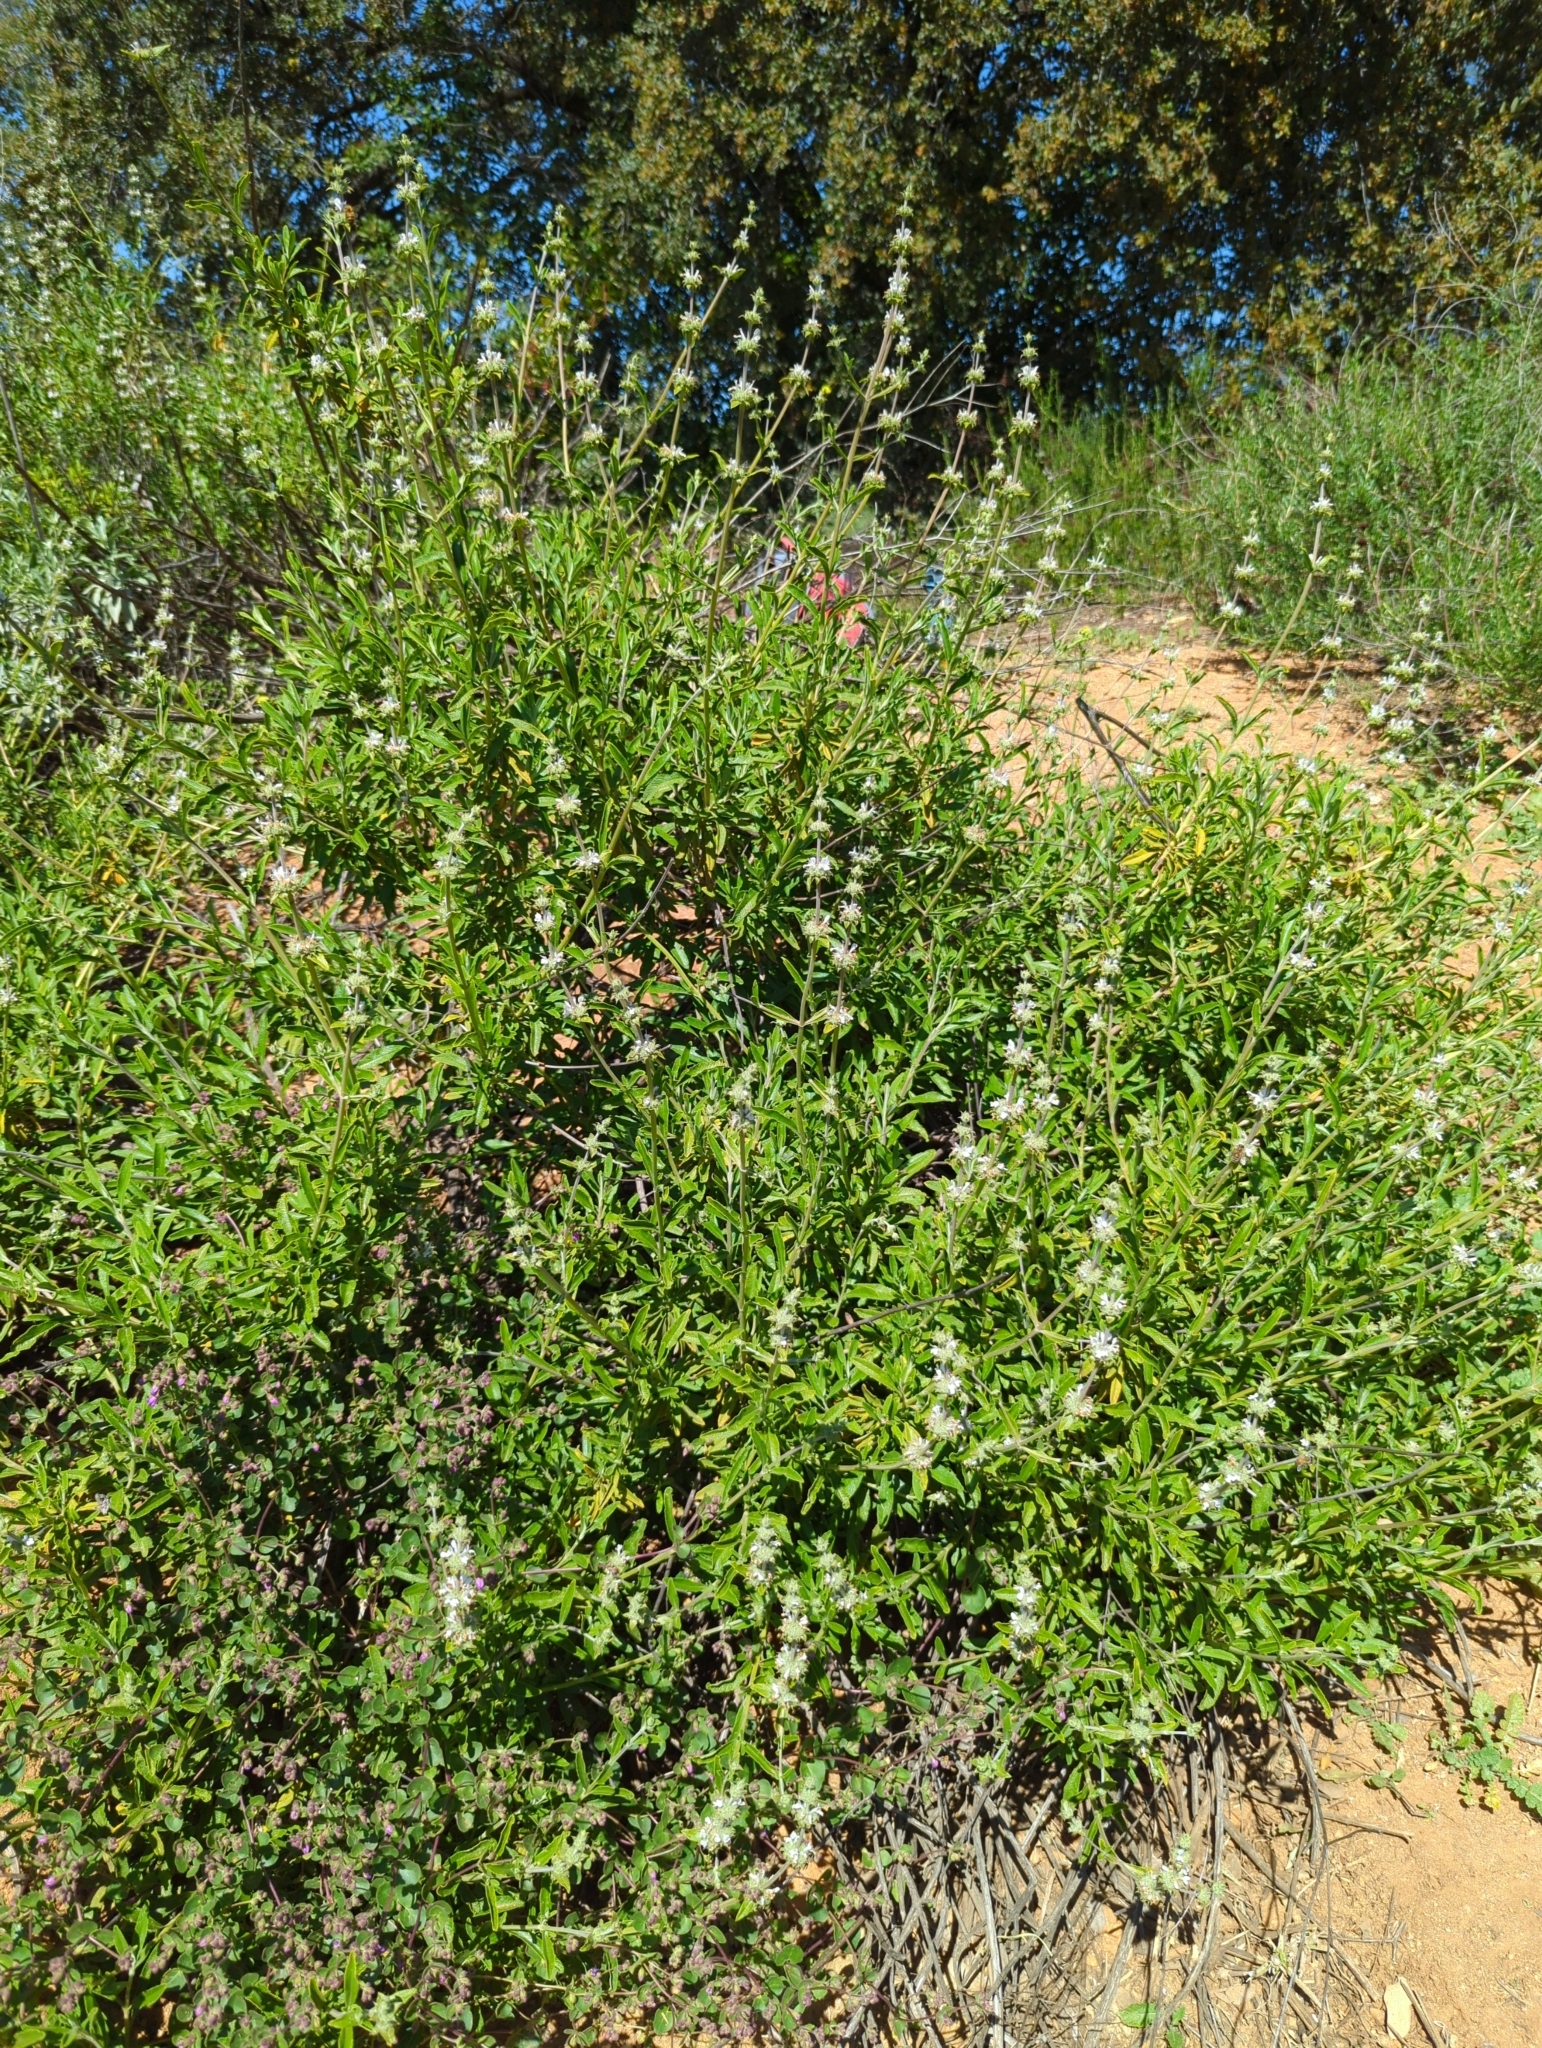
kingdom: Plantae
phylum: Tracheophyta
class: Magnoliopsida
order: Lamiales
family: Lamiaceae
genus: Salvia
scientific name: Salvia mellifera
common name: Black sage
